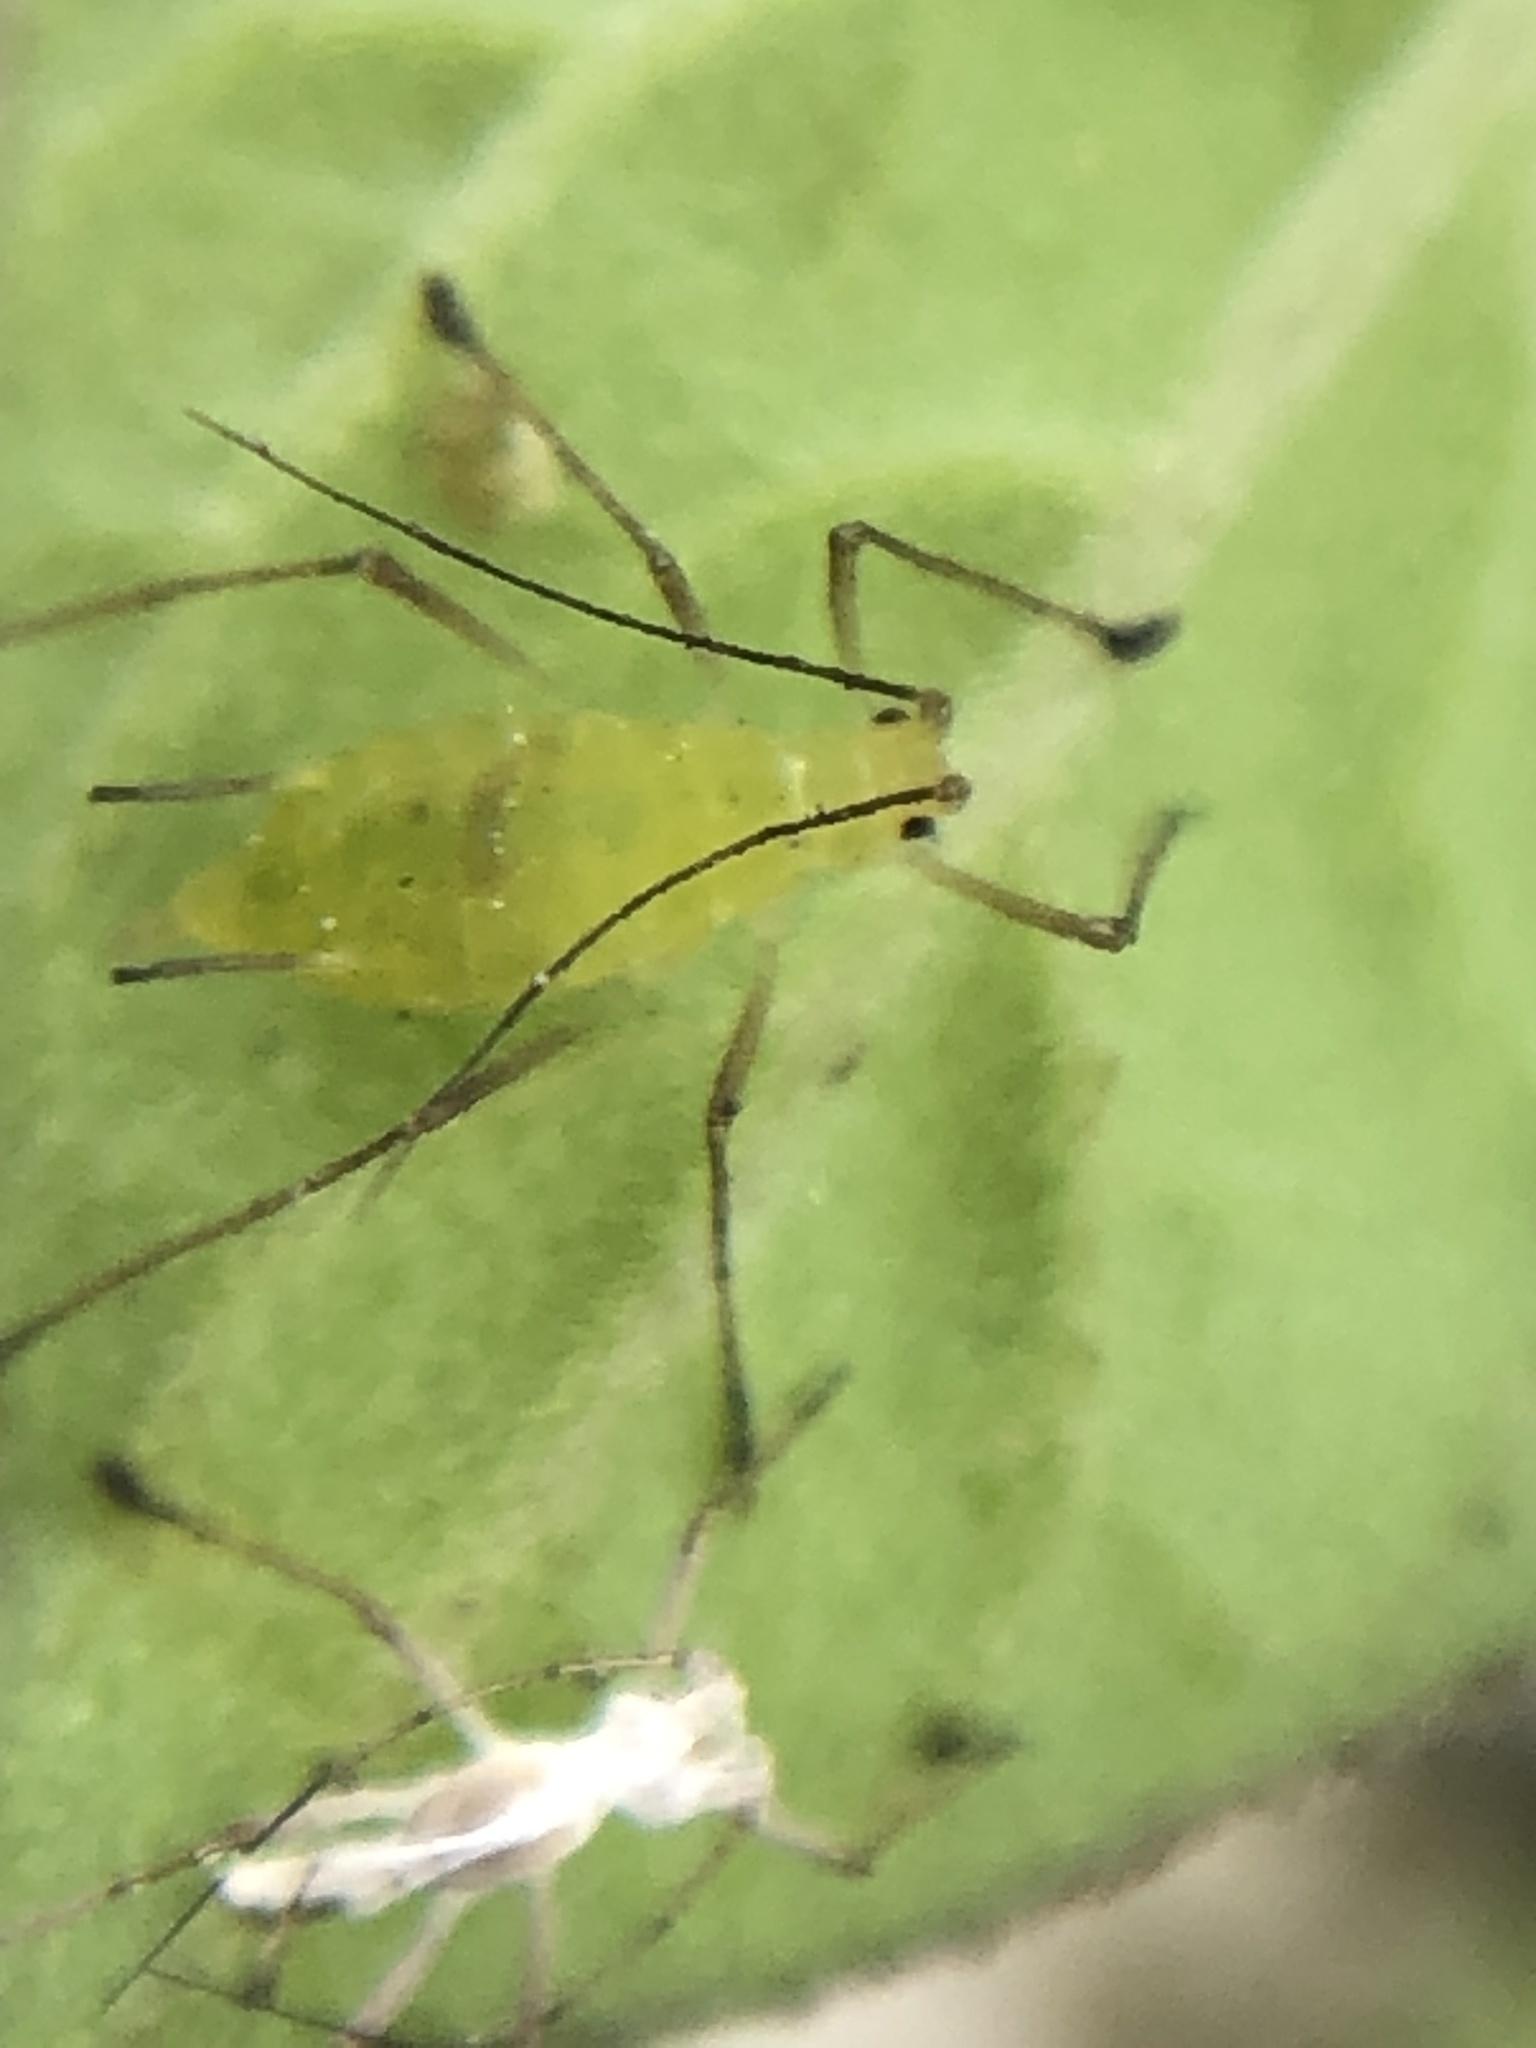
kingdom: Animalia
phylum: Arthropoda
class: Insecta
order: Hemiptera
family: Aphididae
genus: Macrosiphum
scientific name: Macrosiphum euphorbiae
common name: Potato aphid
